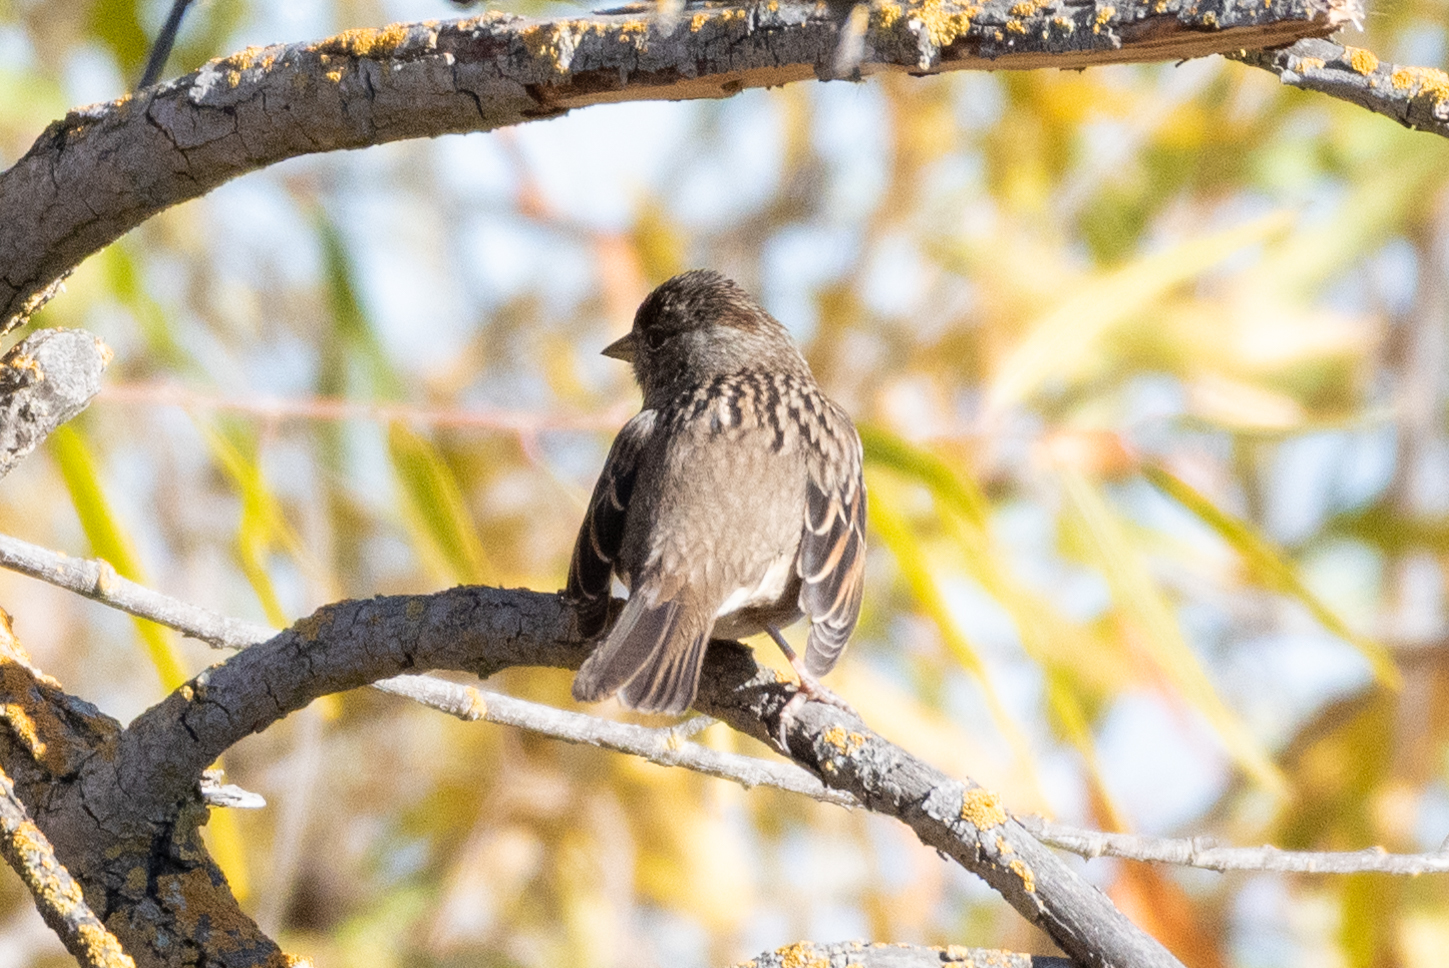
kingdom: Animalia
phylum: Chordata
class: Aves
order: Passeriformes
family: Passerellidae
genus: Zonotrichia
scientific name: Zonotrichia atricapilla
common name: Golden-crowned sparrow
